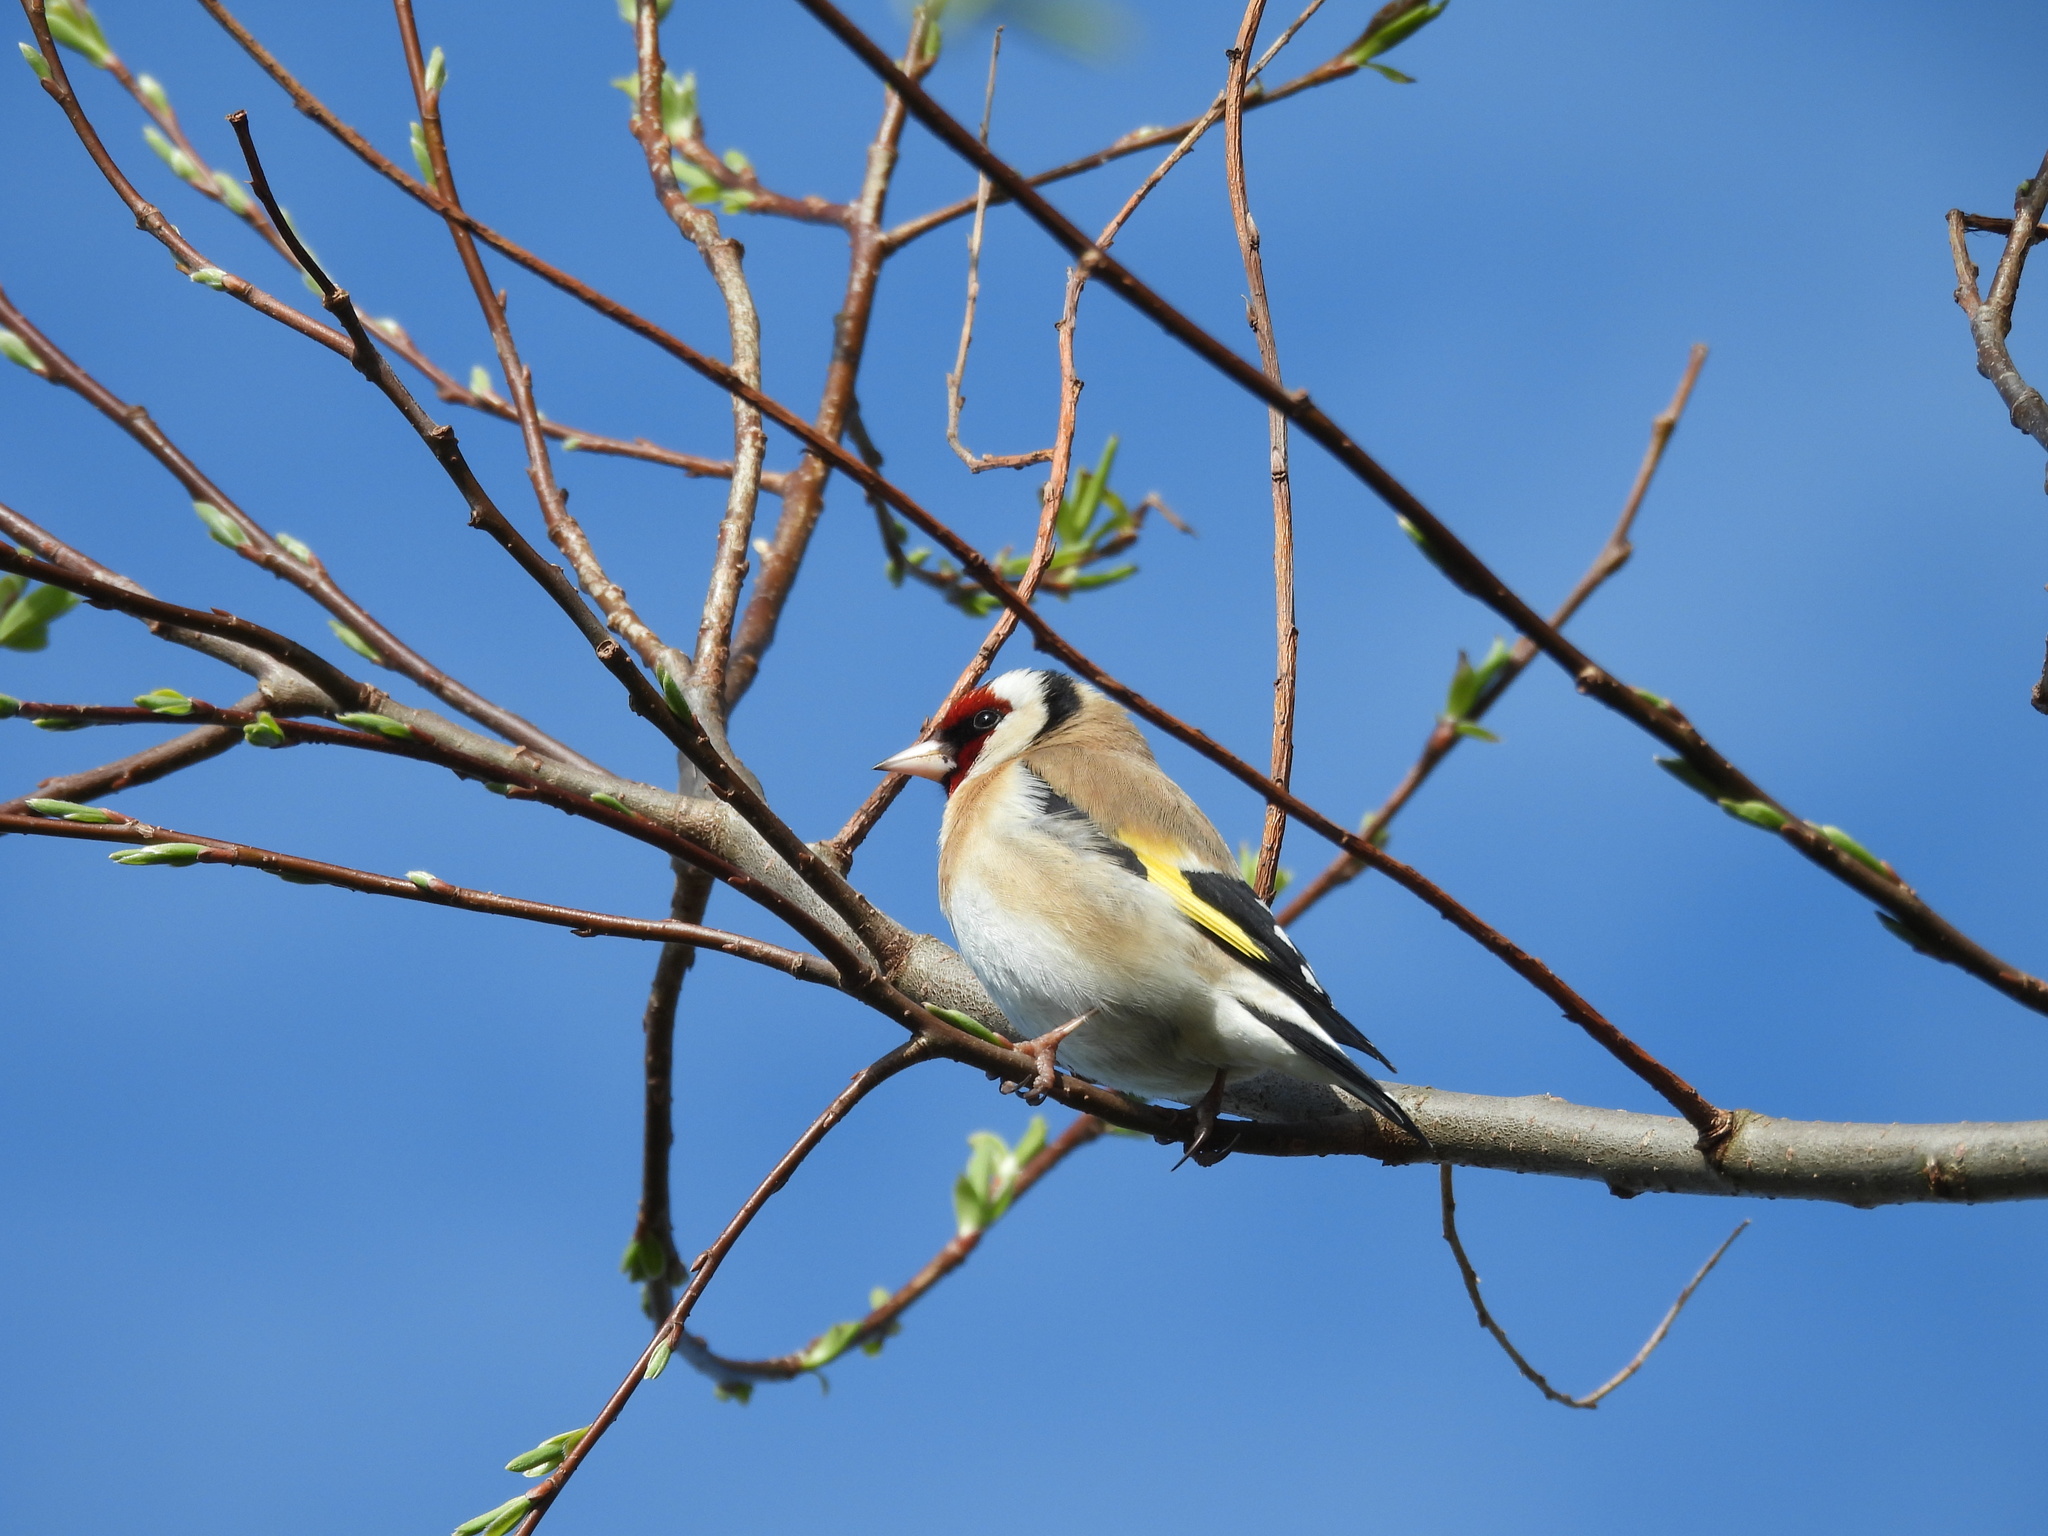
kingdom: Animalia
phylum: Chordata
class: Aves
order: Passeriformes
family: Fringillidae
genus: Carduelis
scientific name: Carduelis carduelis
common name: European goldfinch
